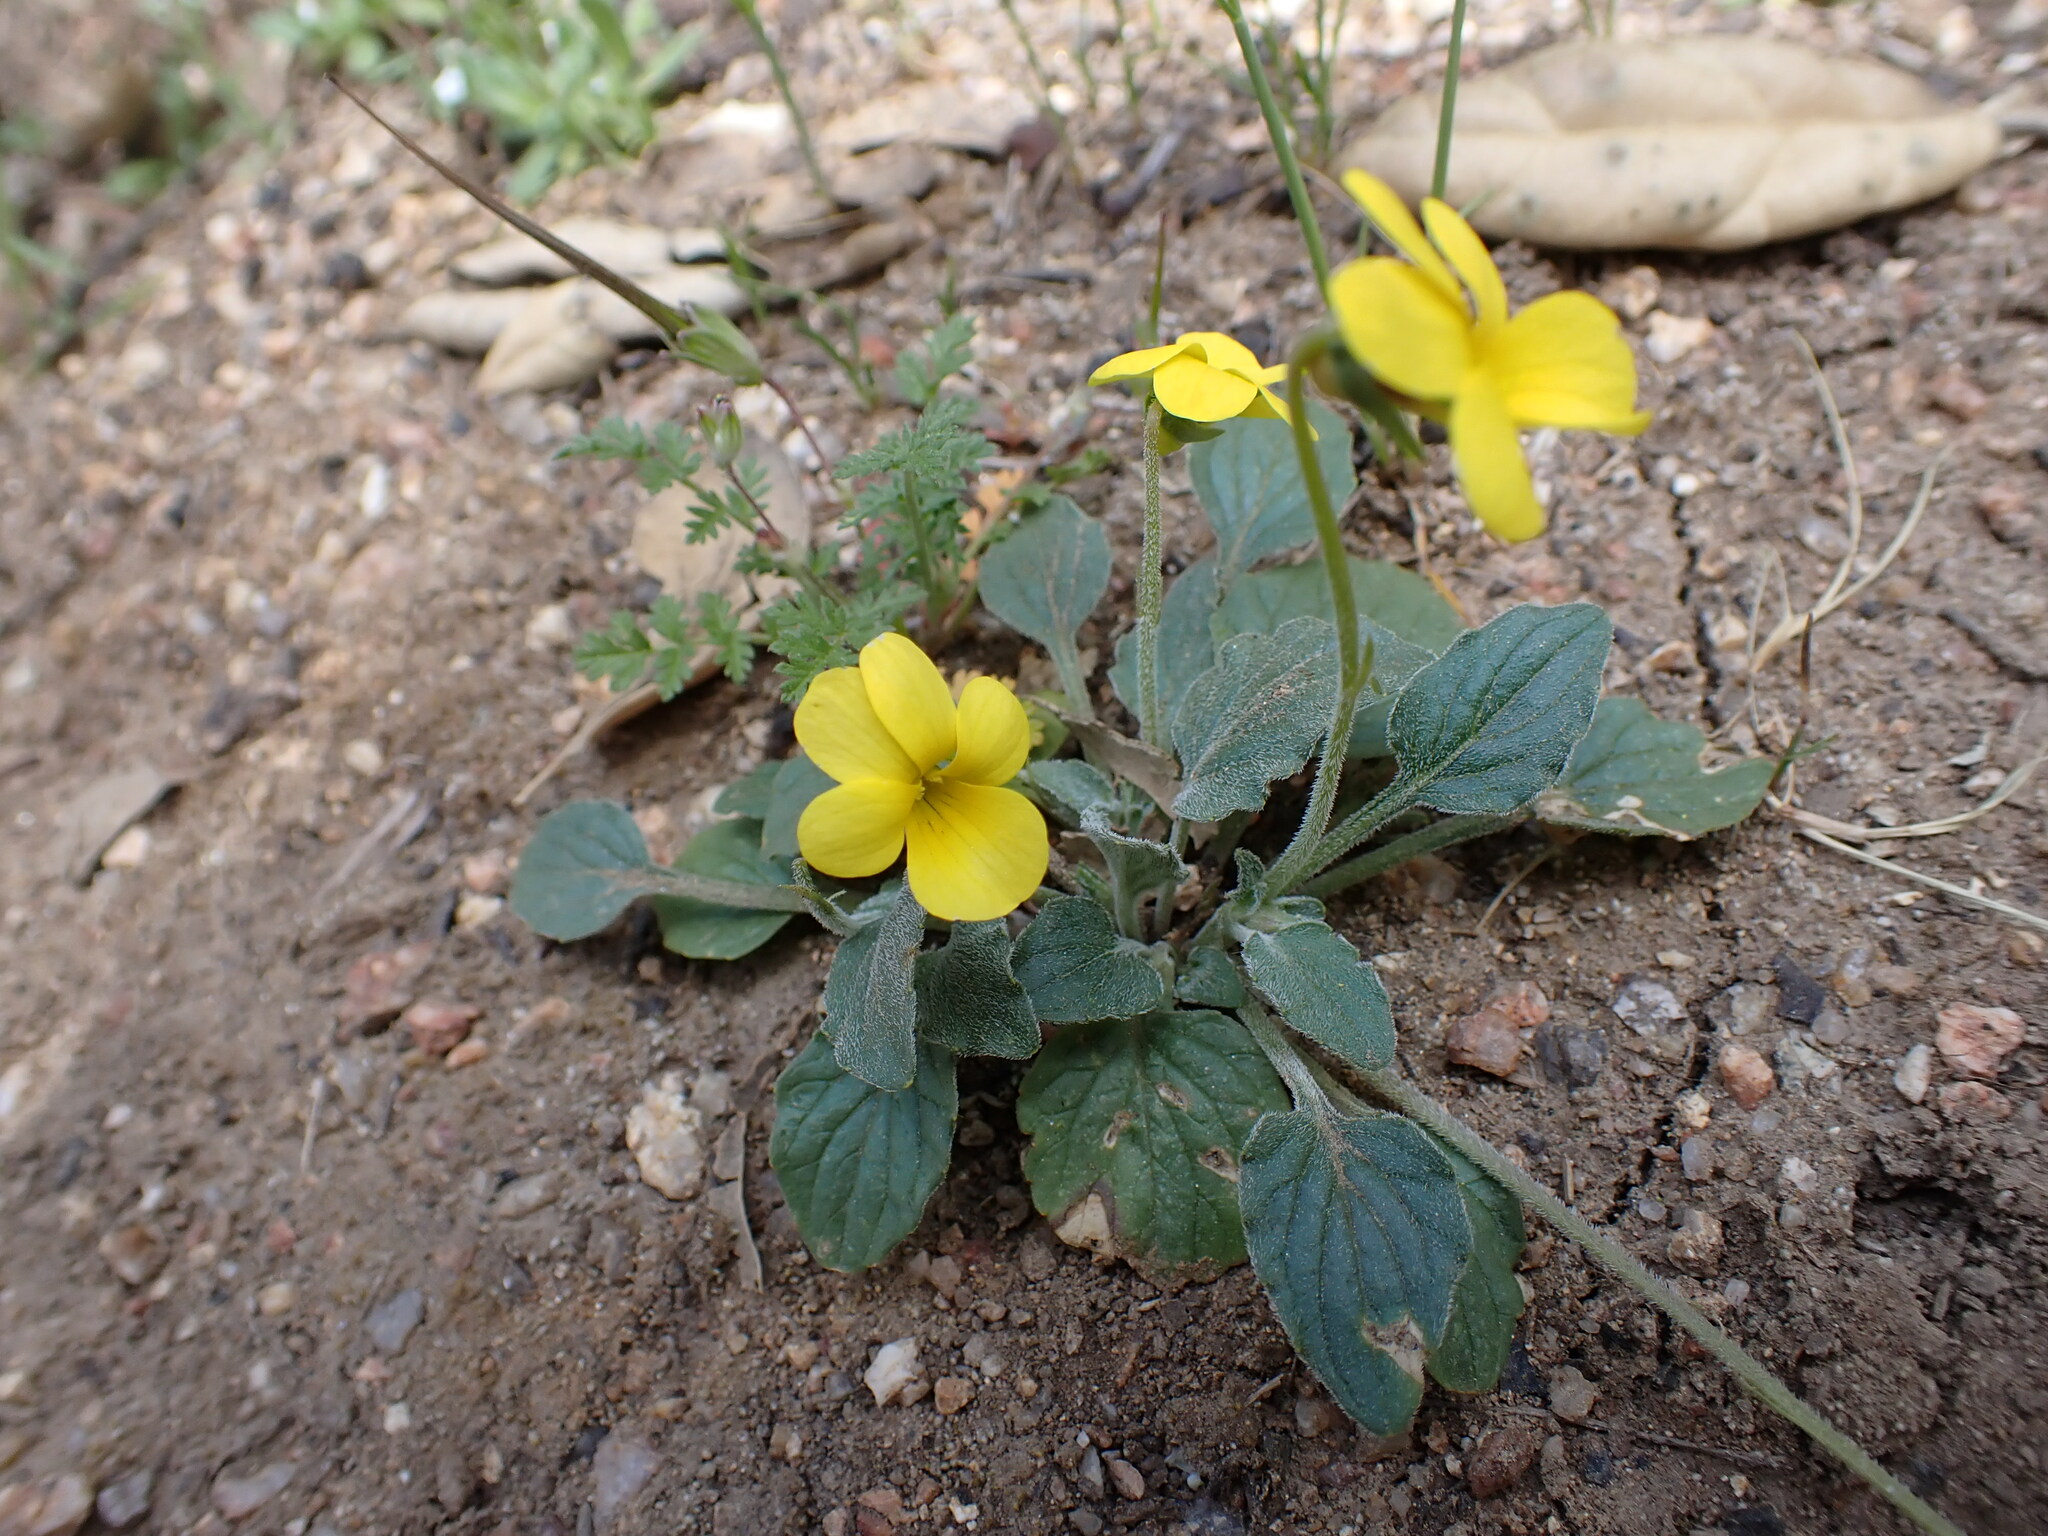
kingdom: Plantae
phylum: Tracheophyta
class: Magnoliopsida
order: Malpighiales
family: Violaceae
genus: Viola
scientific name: Viola purpurea
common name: Pine violet
